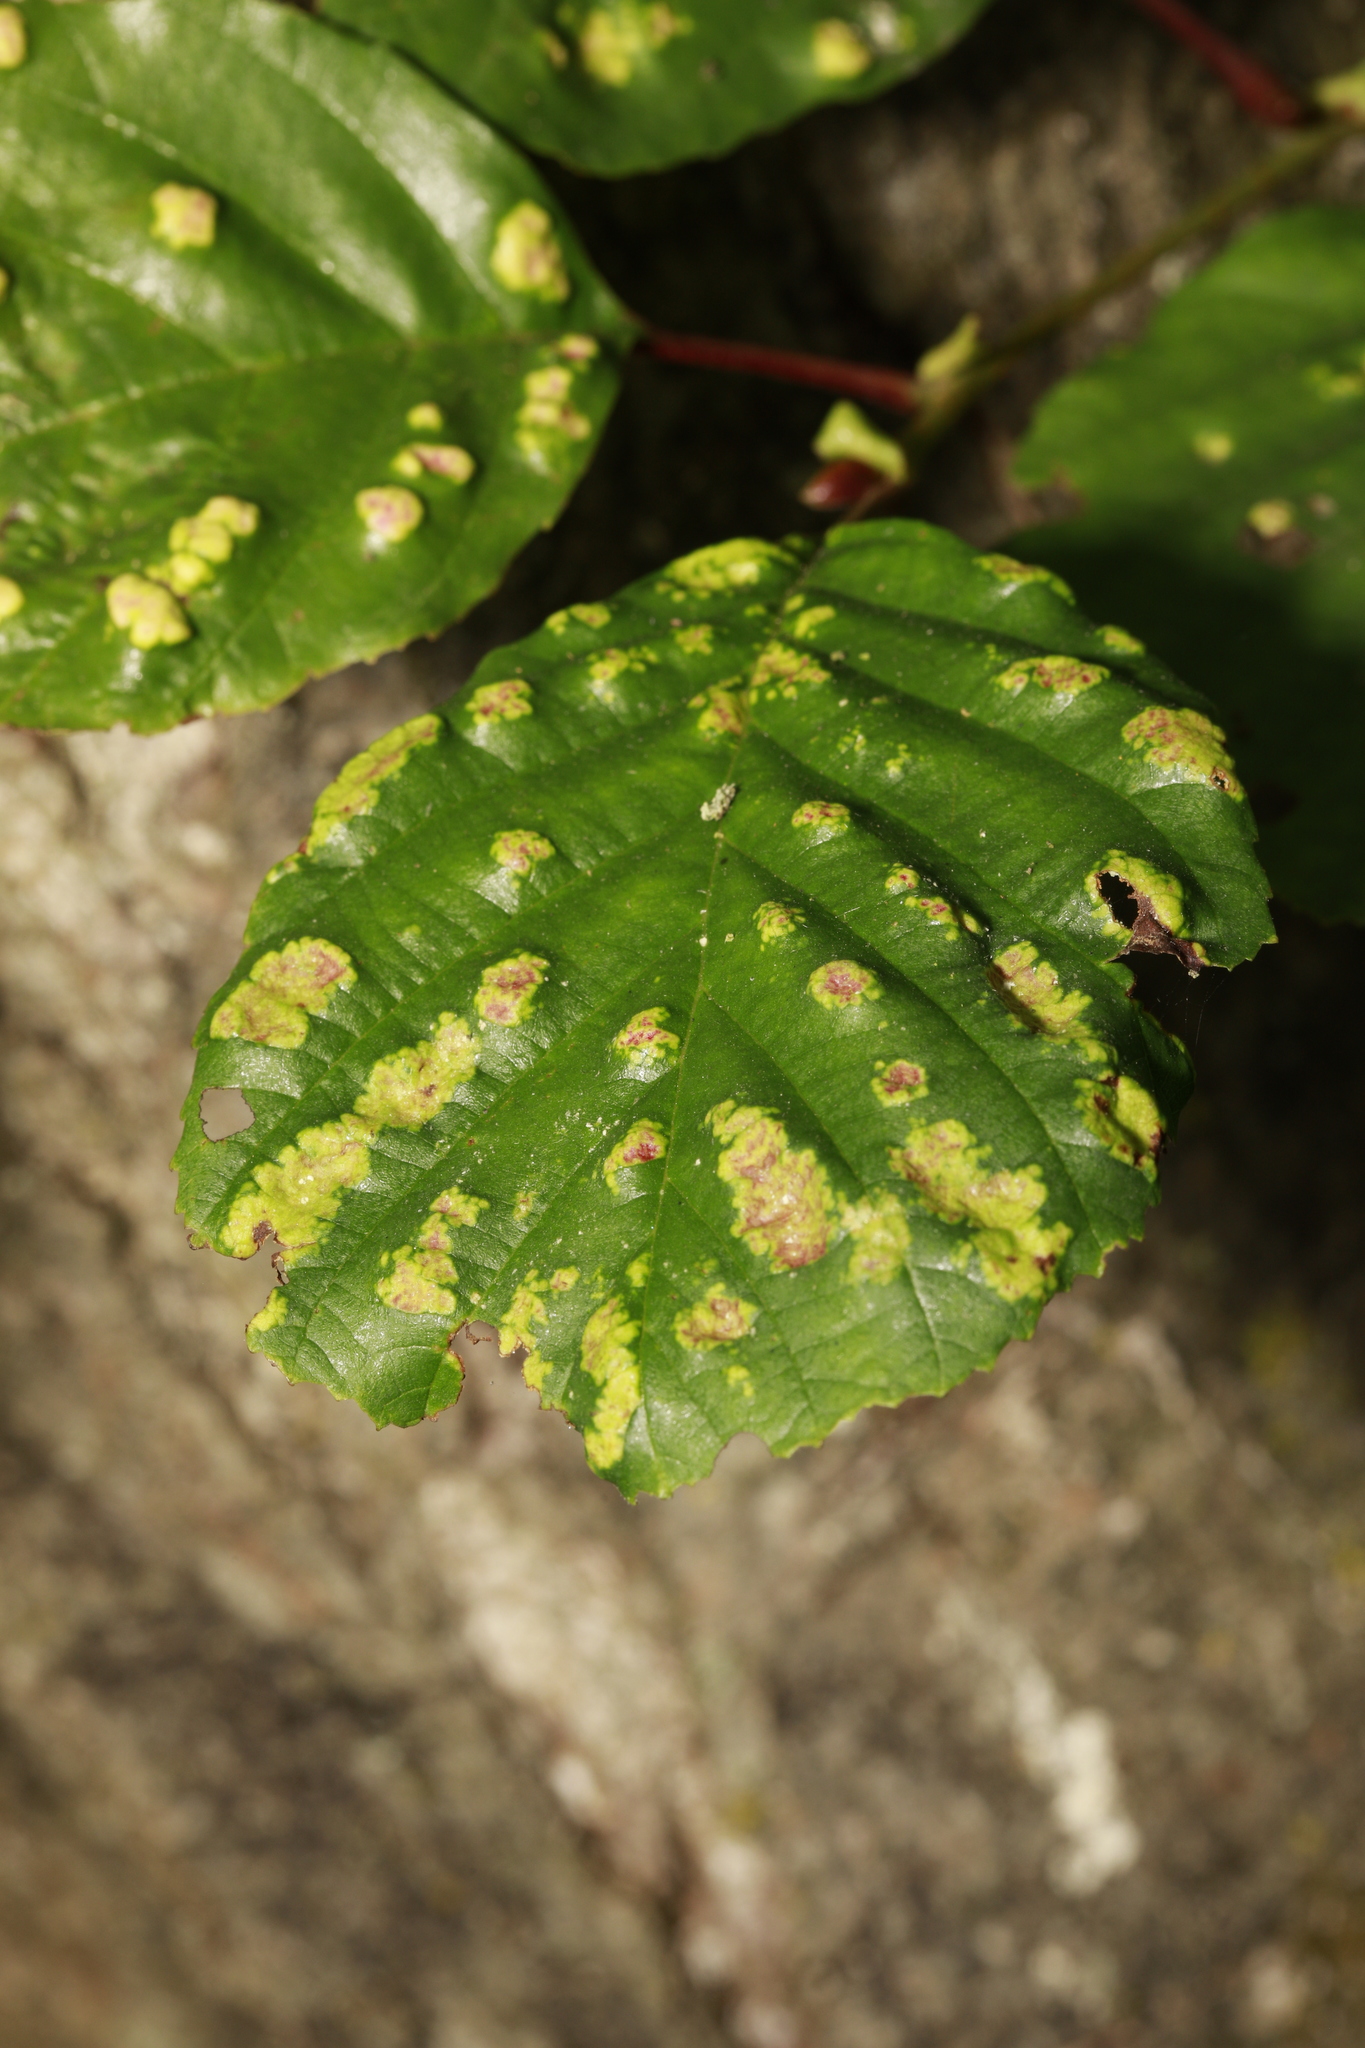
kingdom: Animalia
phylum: Arthropoda
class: Arachnida
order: Trombidiformes
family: Eriophyidae
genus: Acalitus
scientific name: Acalitus brevitarsus
